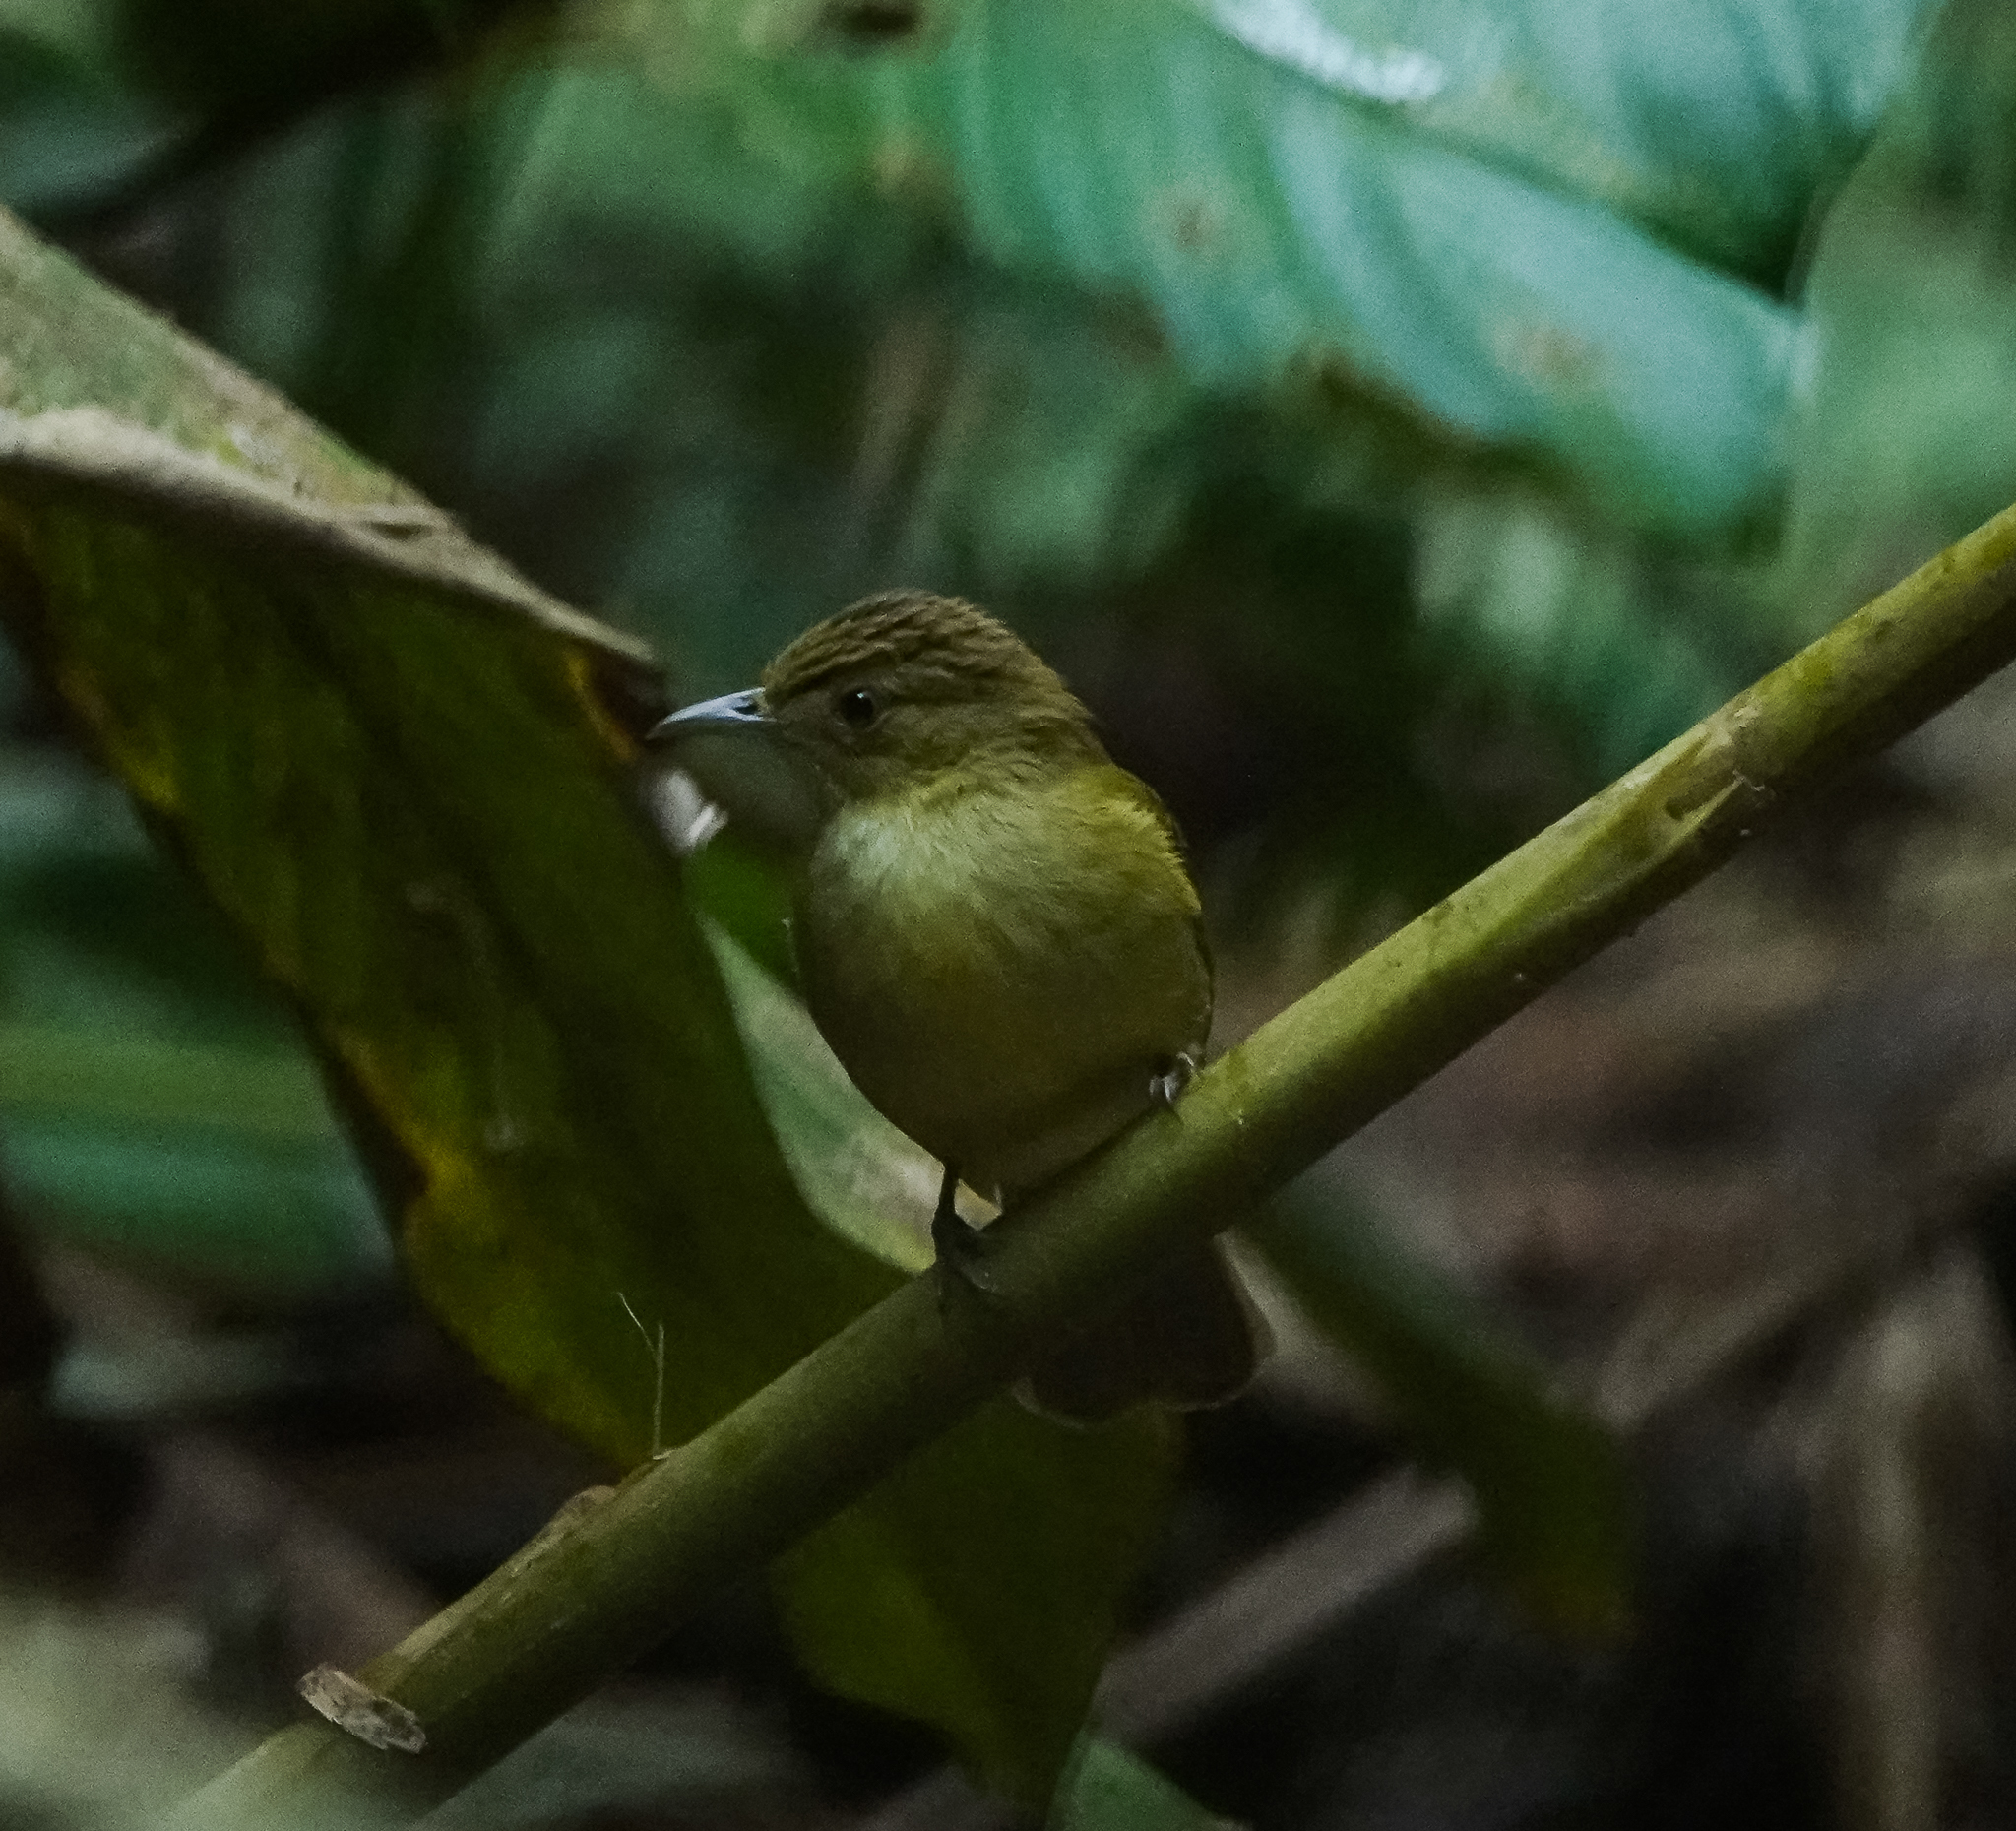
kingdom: Animalia
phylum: Chordata
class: Aves
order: Passeriformes
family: Pycnonotidae
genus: Iole
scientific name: Iole virescens
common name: Olive bulbul
